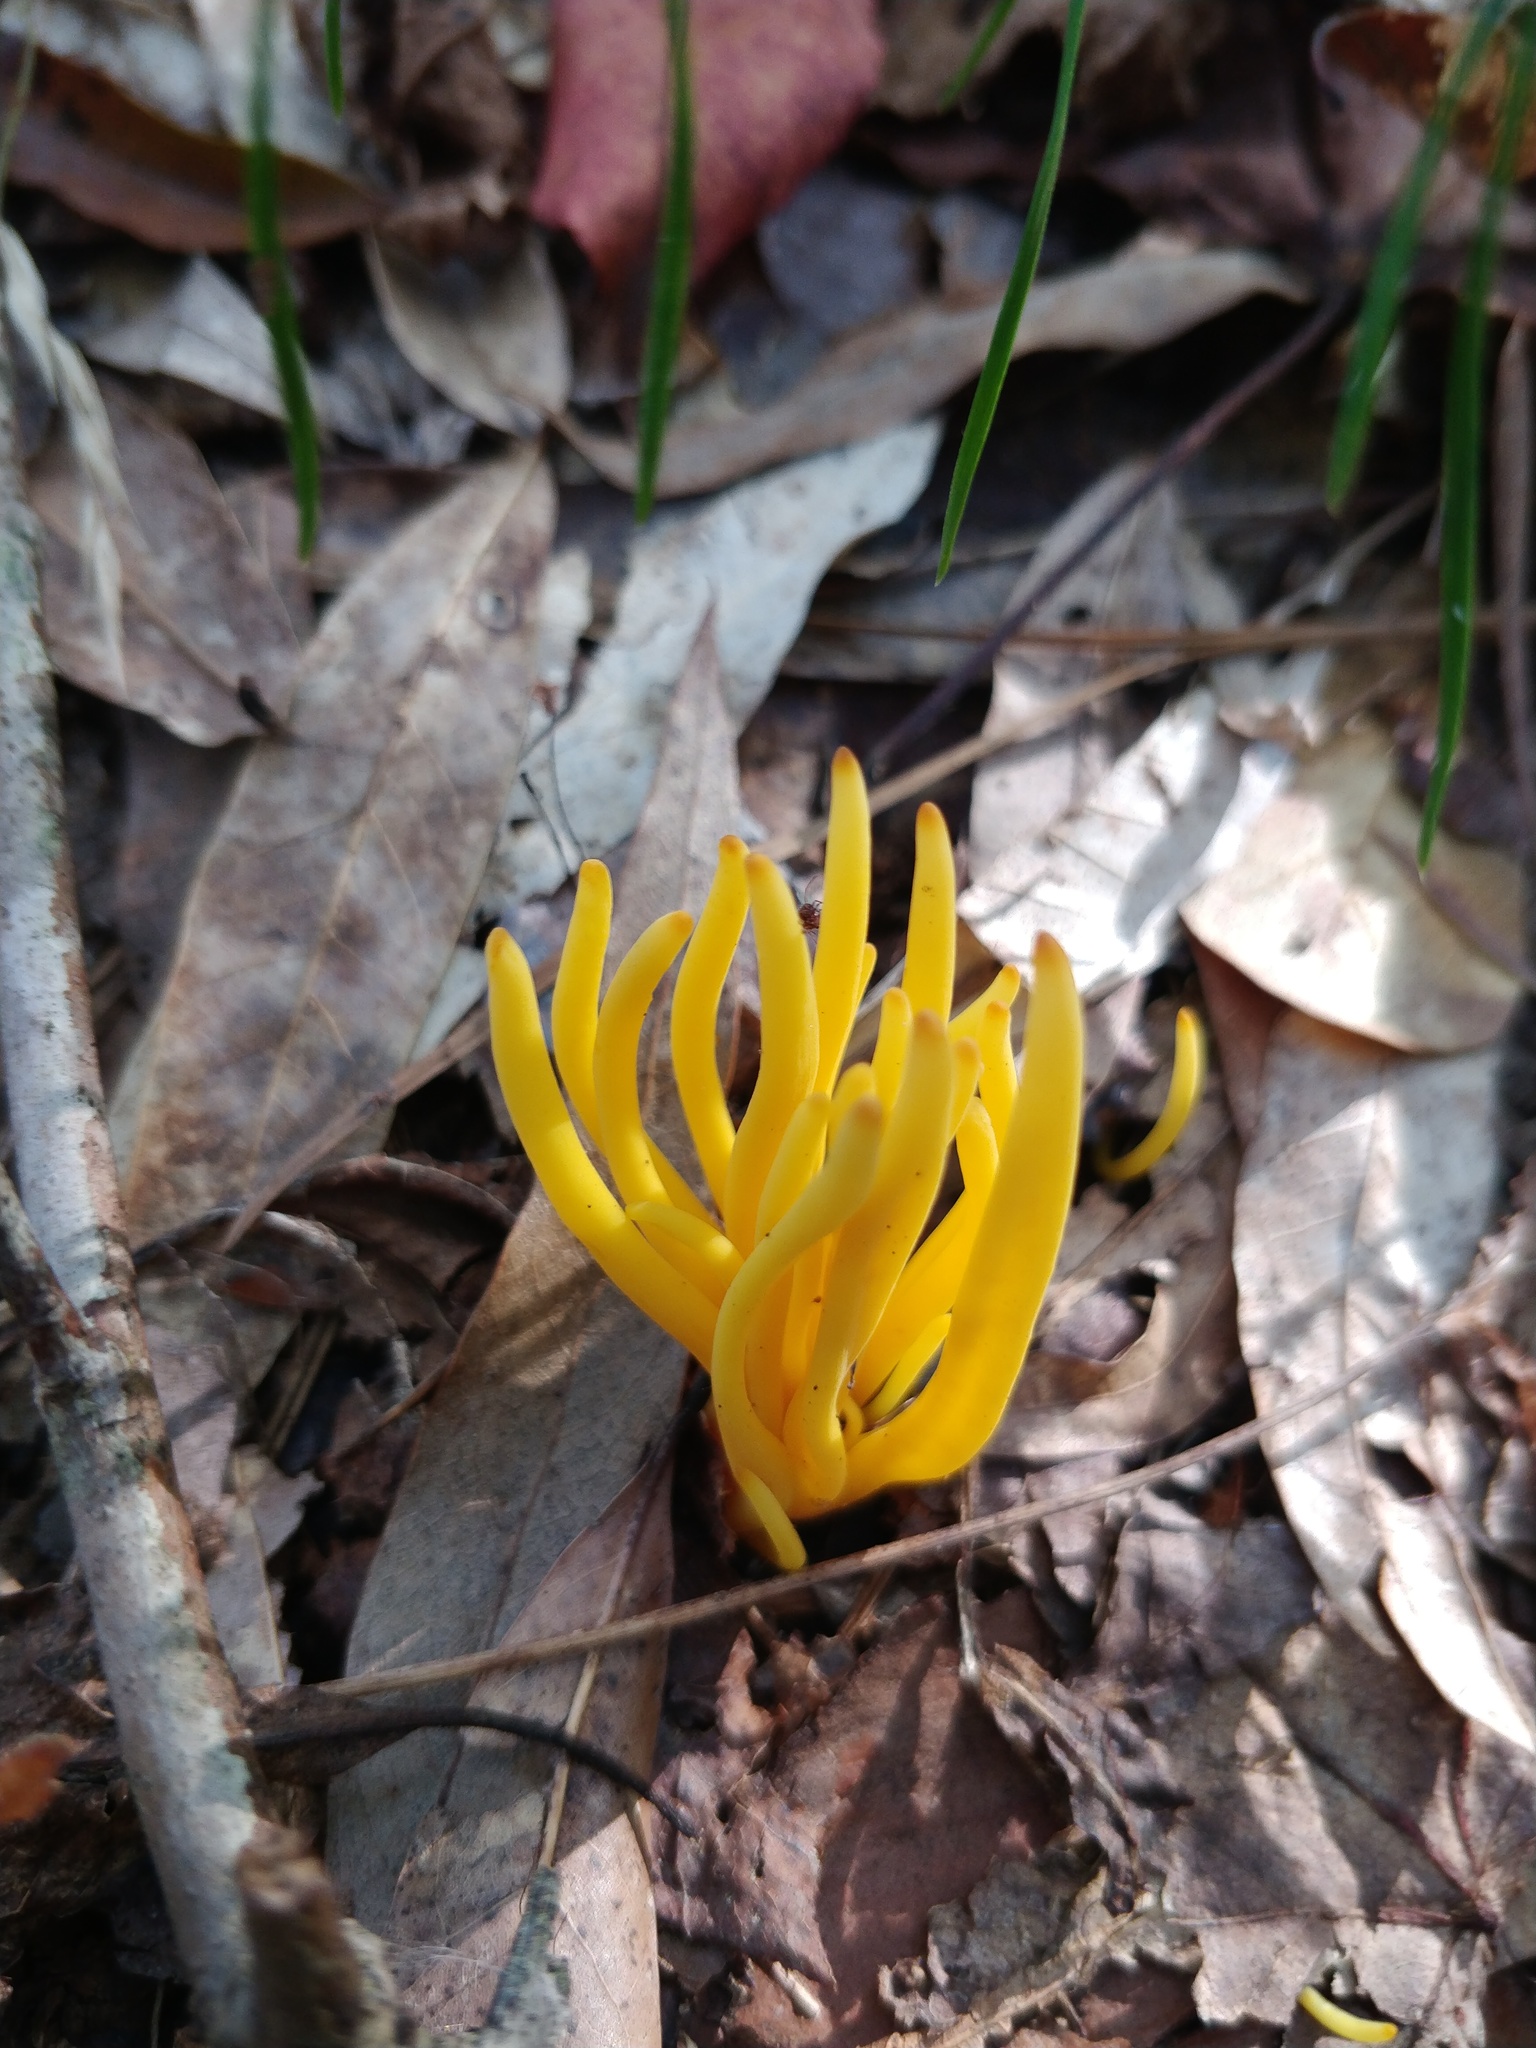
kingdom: Fungi
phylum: Basidiomycota
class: Agaricomycetes
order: Agaricales
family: Clavariaceae
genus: Clavulinopsis
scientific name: Clavulinopsis fusiformis
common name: Golden spindles
